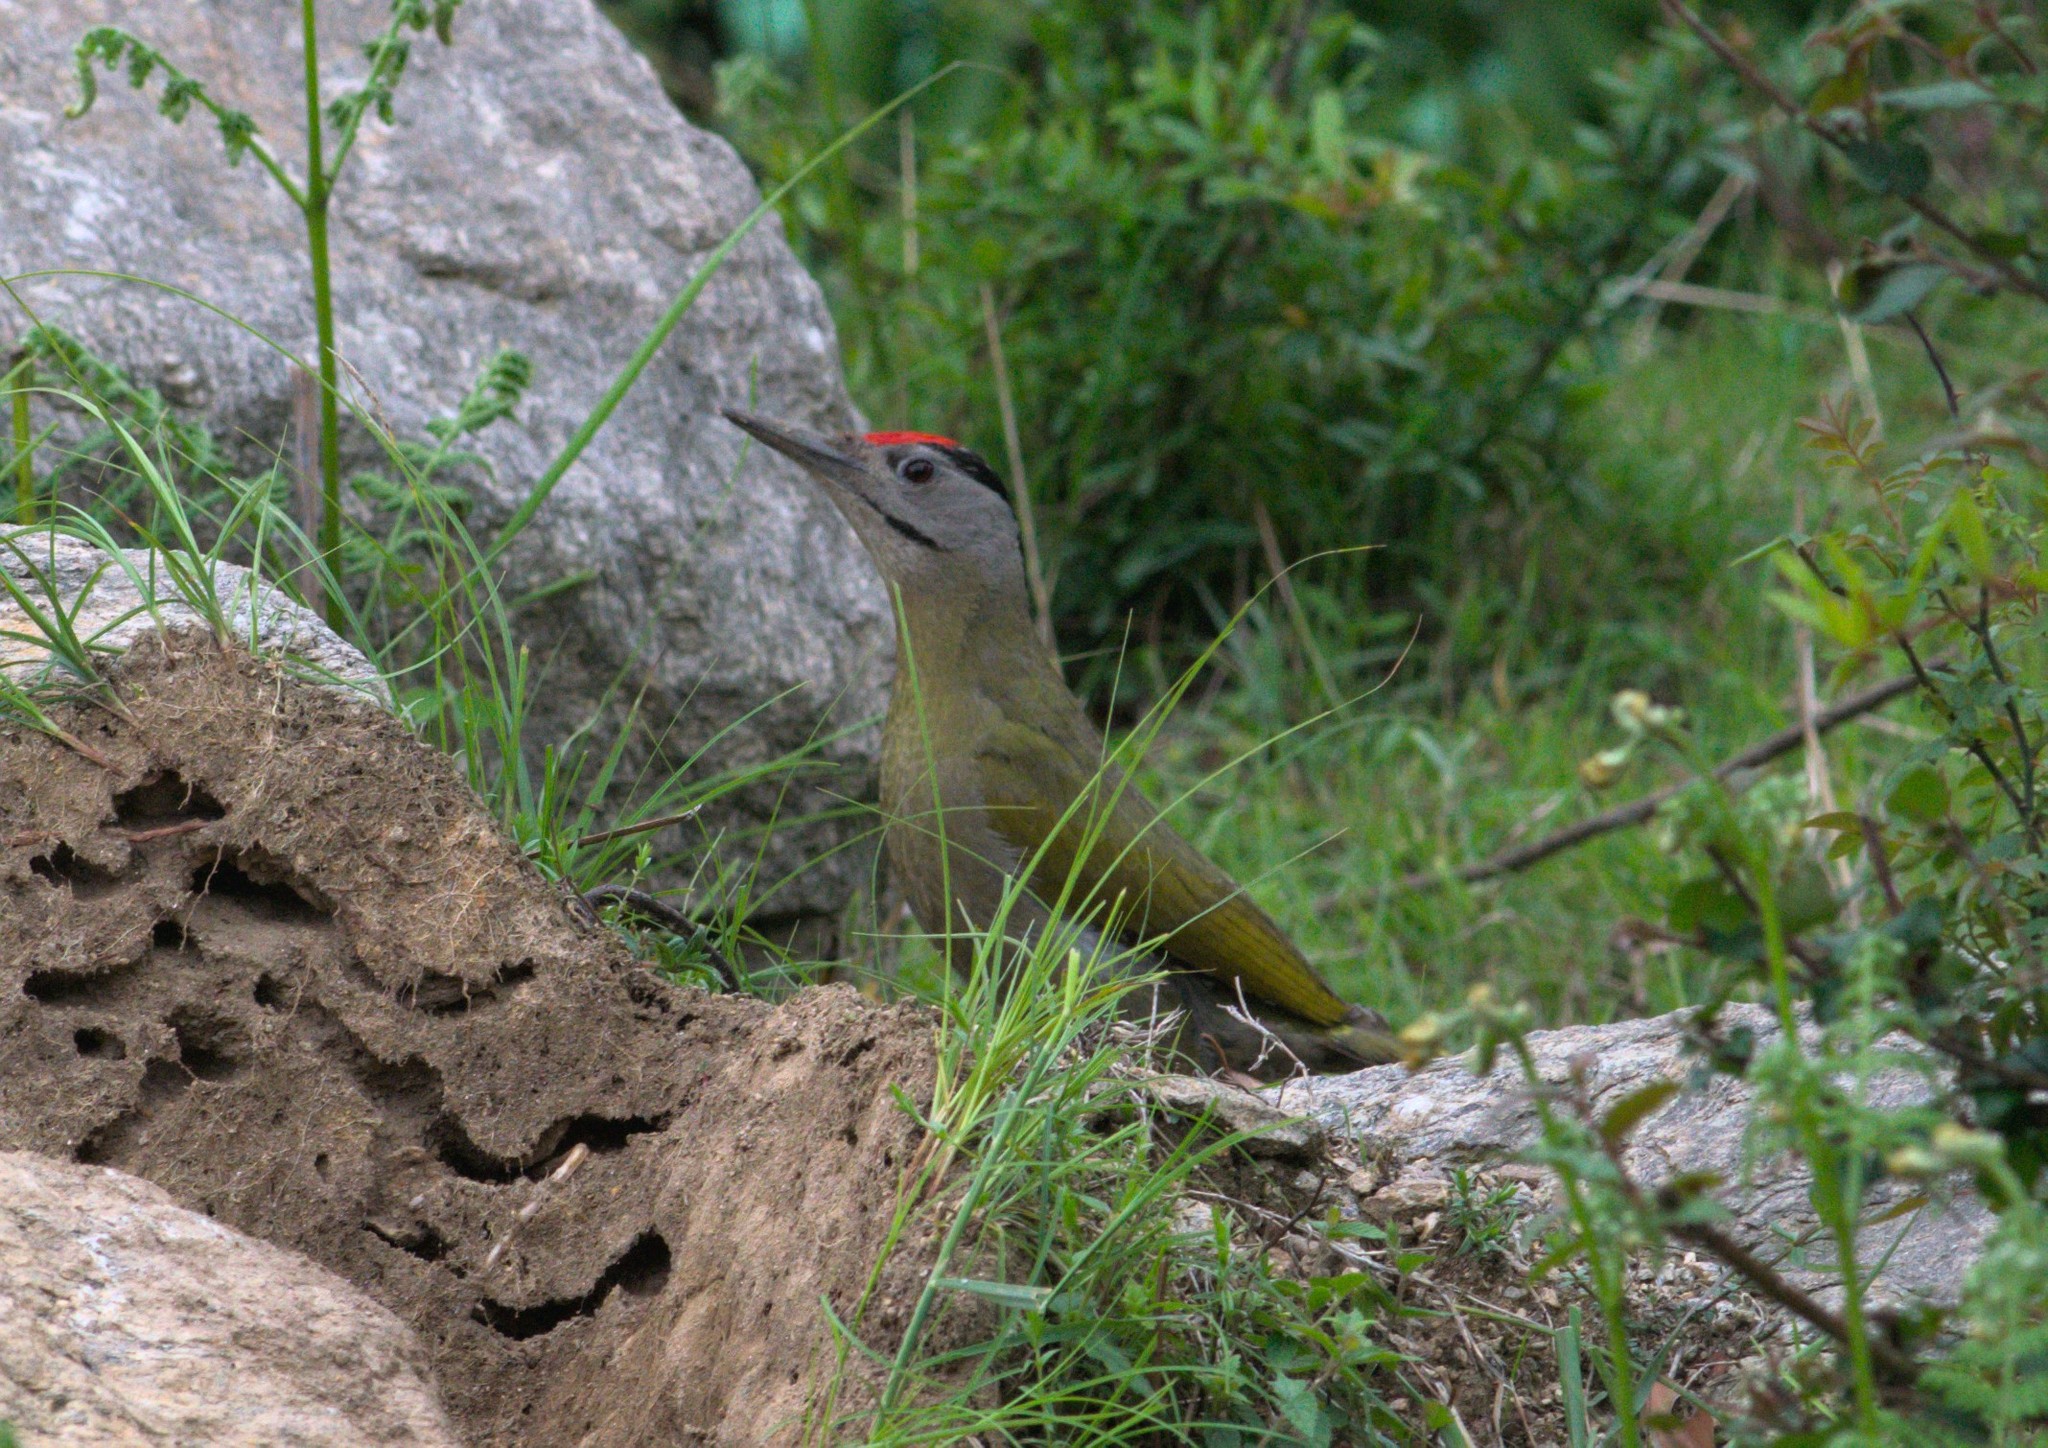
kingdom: Animalia
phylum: Chordata
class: Aves
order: Piciformes
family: Picidae
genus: Picus
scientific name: Picus canus
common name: Grey-headed woodpecker
